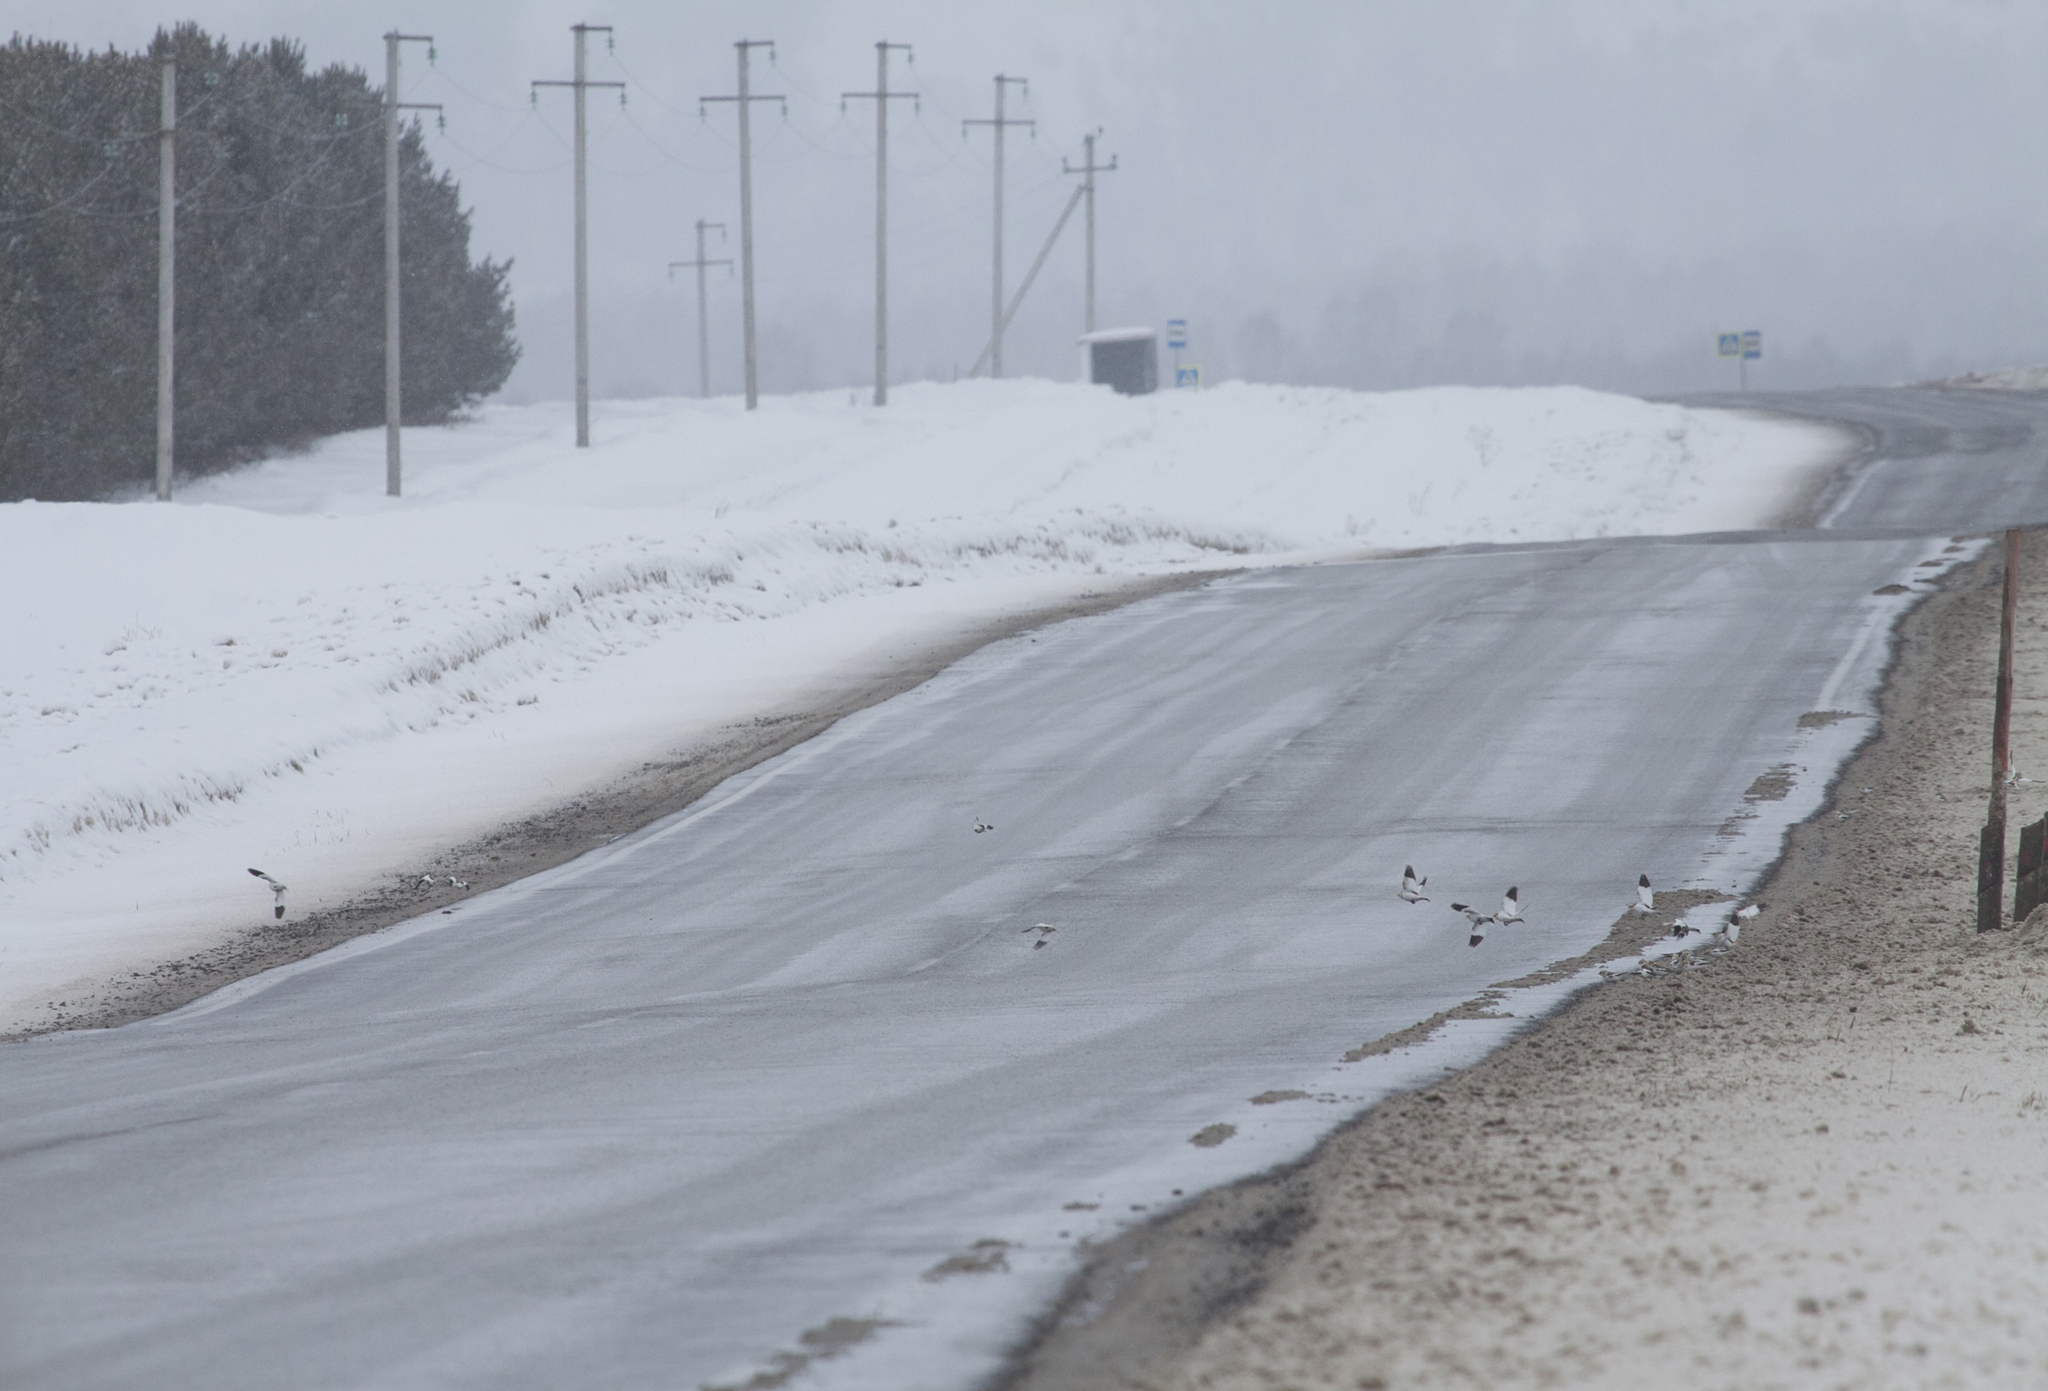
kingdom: Animalia
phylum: Chordata
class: Aves
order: Passeriformes
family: Calcariidae
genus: Plectrophenax
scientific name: Plectrophenax nivalis
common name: Snow bunting
